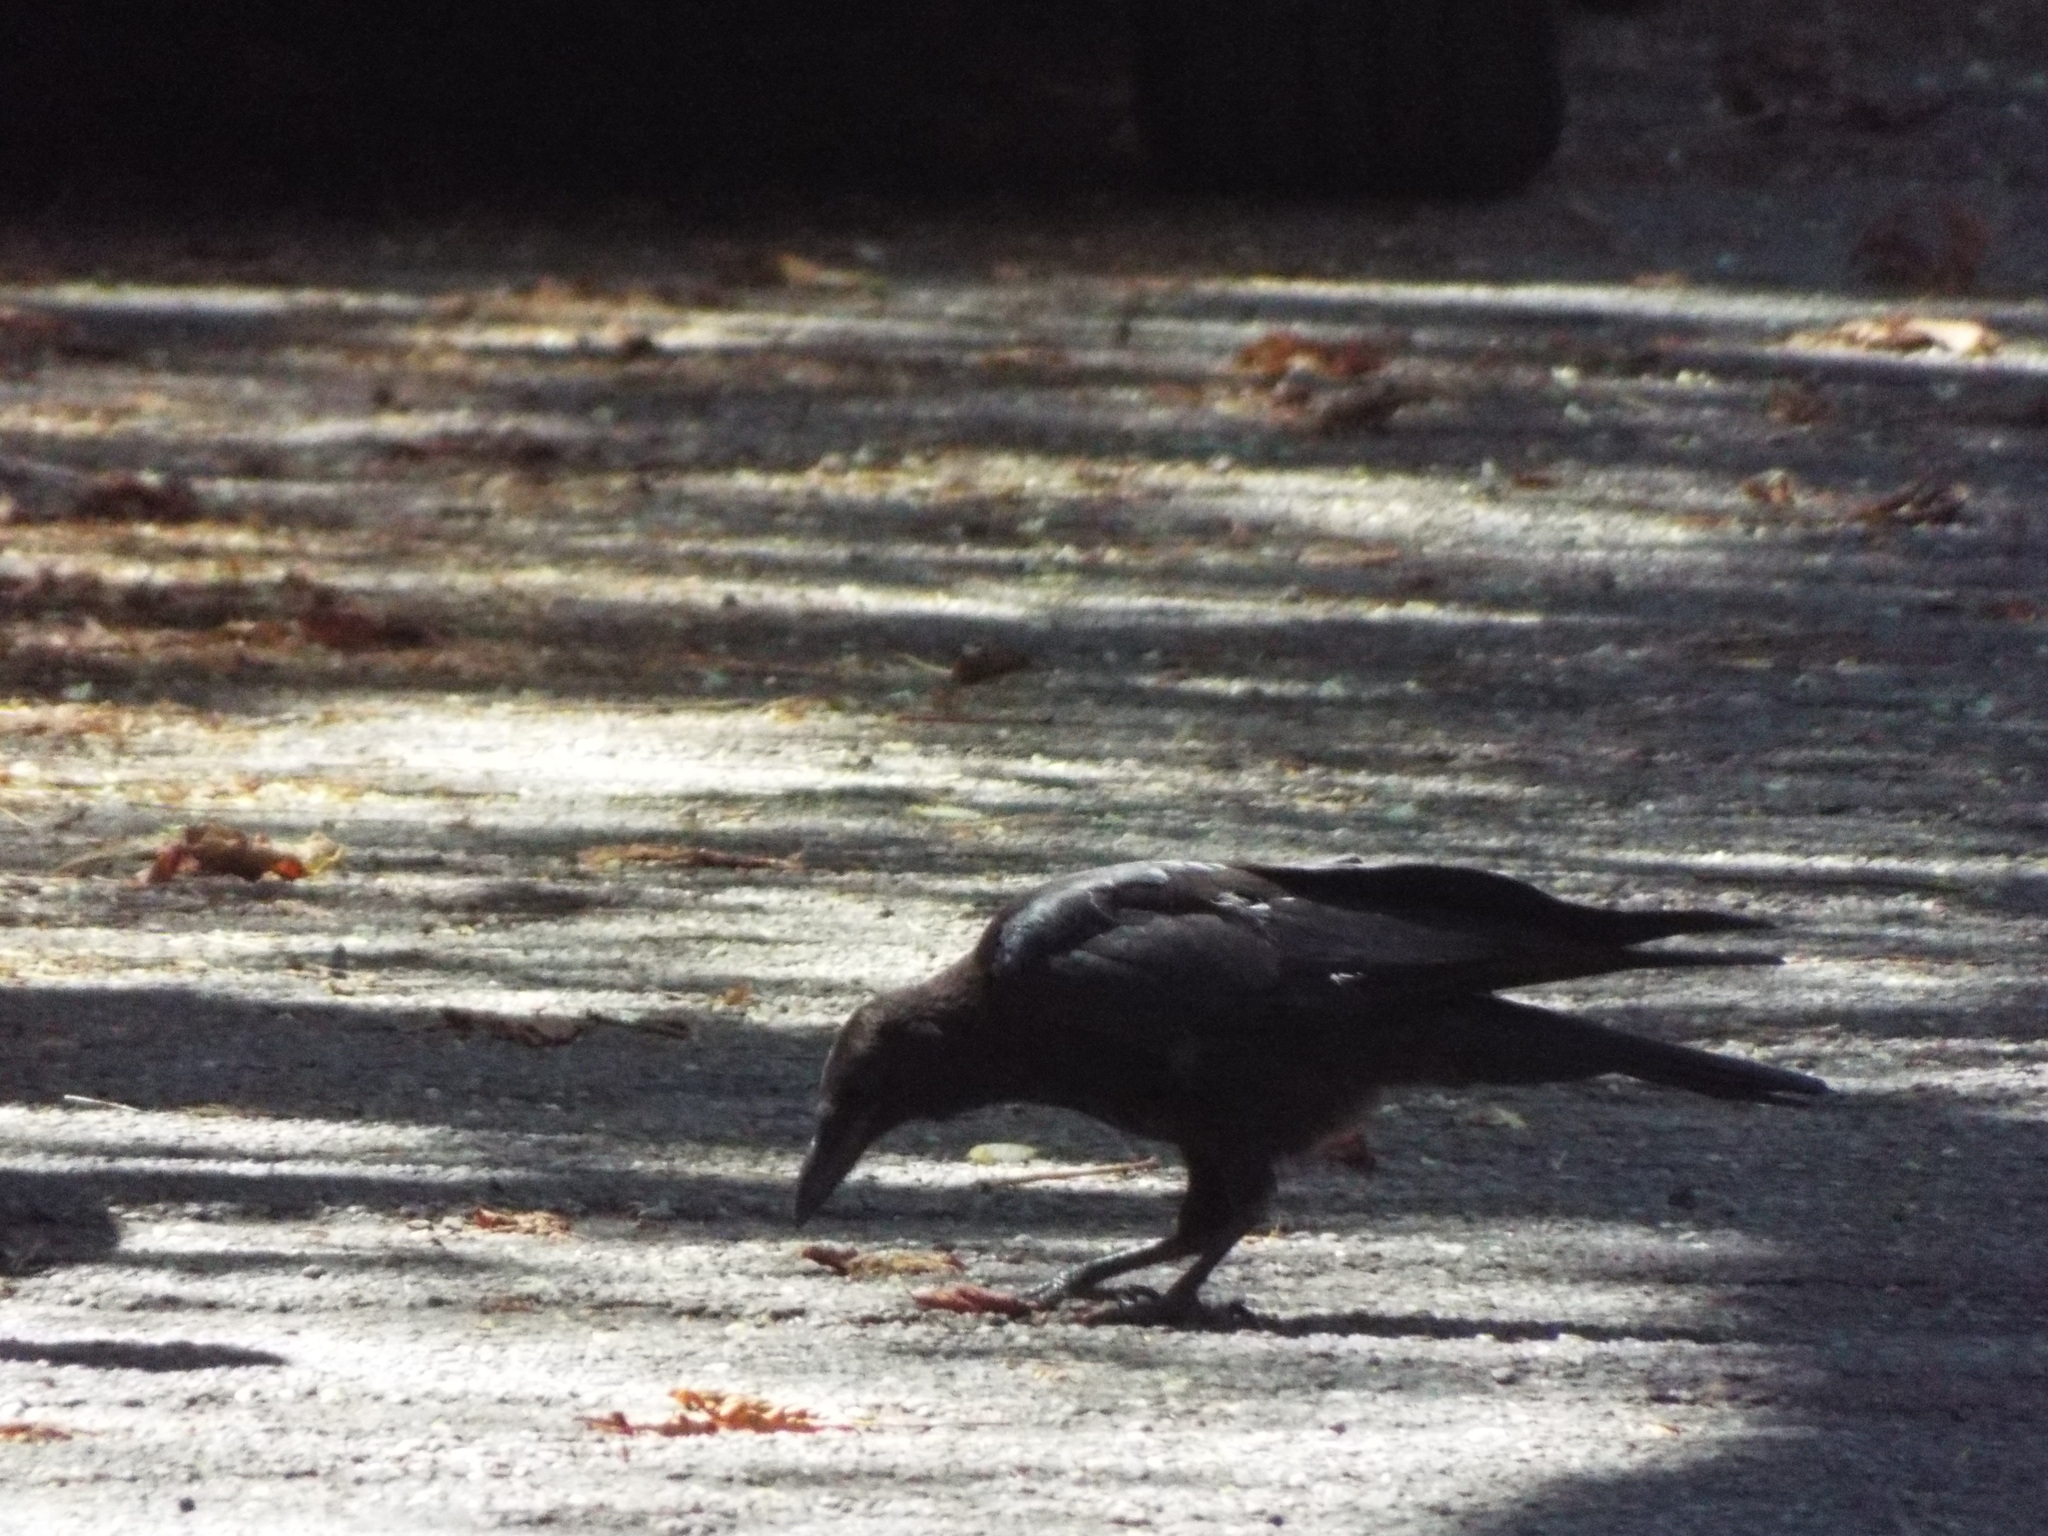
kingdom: Animalia
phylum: Chordata
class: Aves
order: Passeriformes
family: Corvidae
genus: Corvus
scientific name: Corvus corone
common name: Carrion crow
